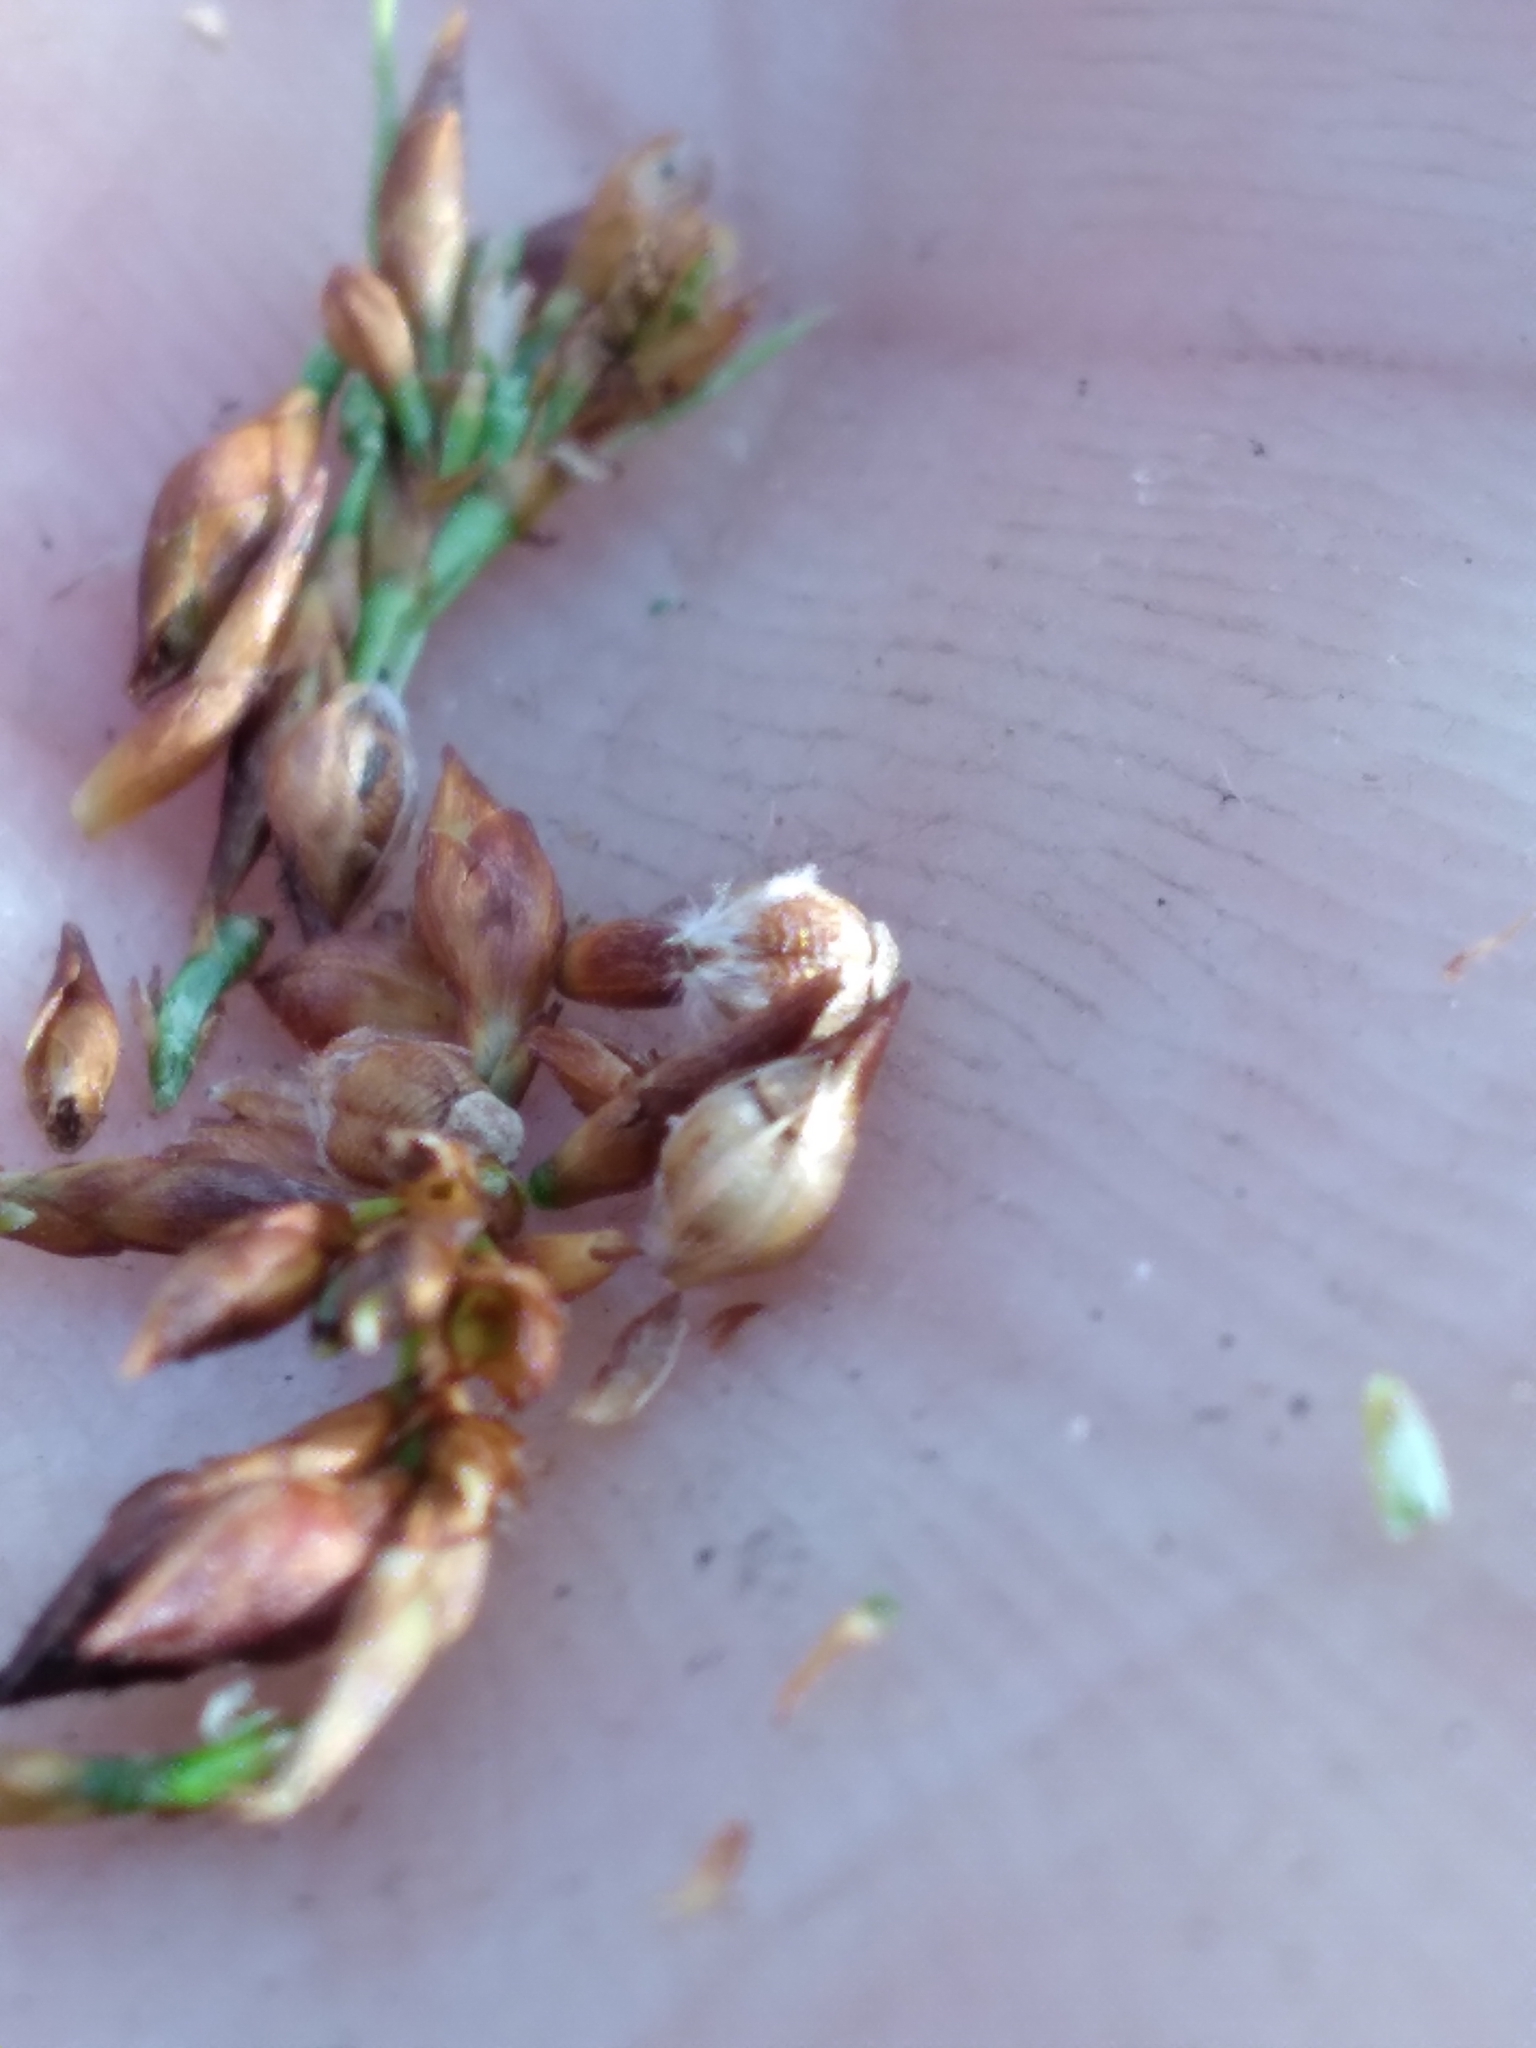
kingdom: Plantae
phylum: Tracheophyta
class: Liliopsida
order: Poales
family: Cyperaceae
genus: Rhynchospora
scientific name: Rhynchospora intermedia
